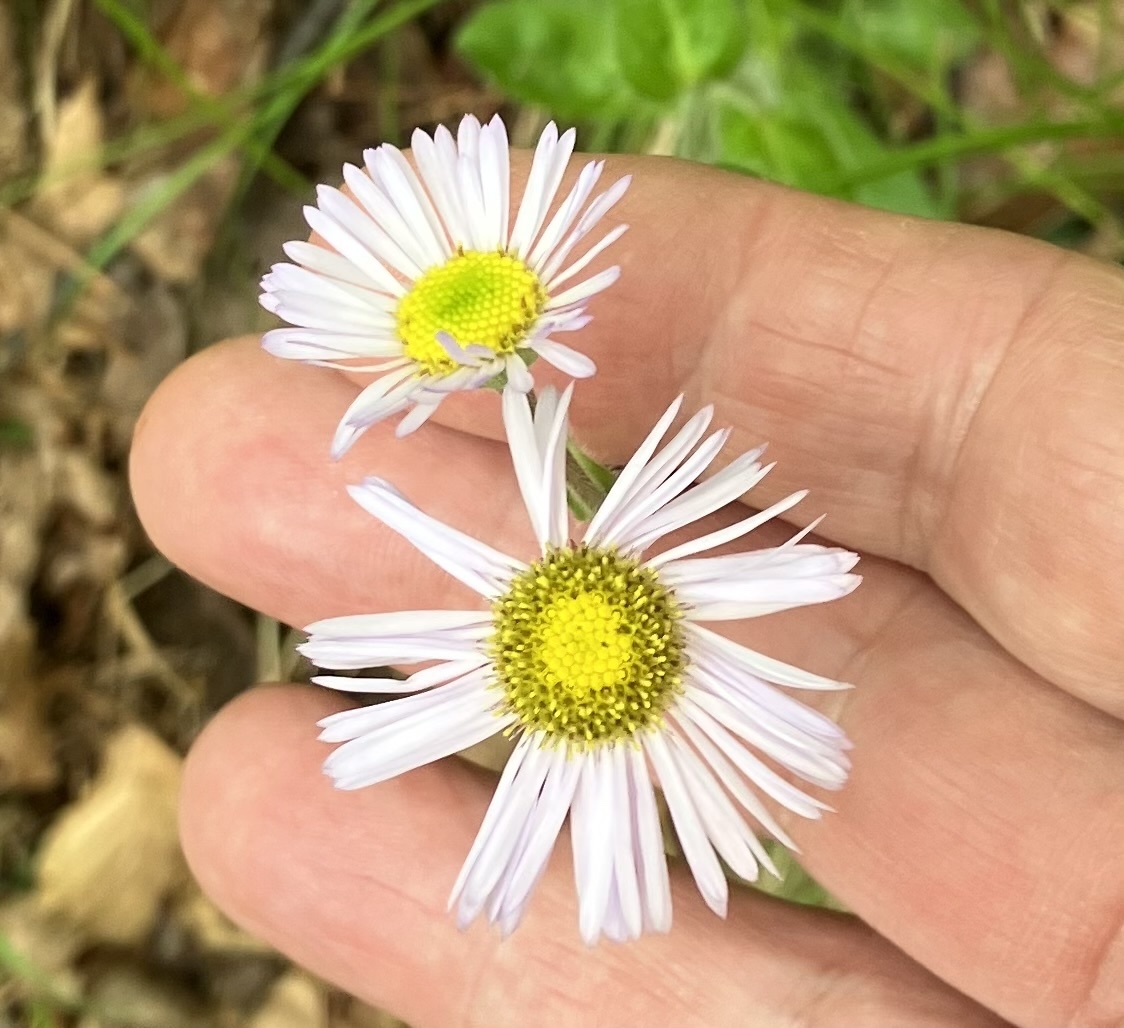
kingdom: Plantae
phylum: Tracheophyta
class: Magnoliopsida
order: Asterales
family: Asteraceae
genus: Erigeron
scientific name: Erigeron pulchellus
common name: Hairy fleabane
